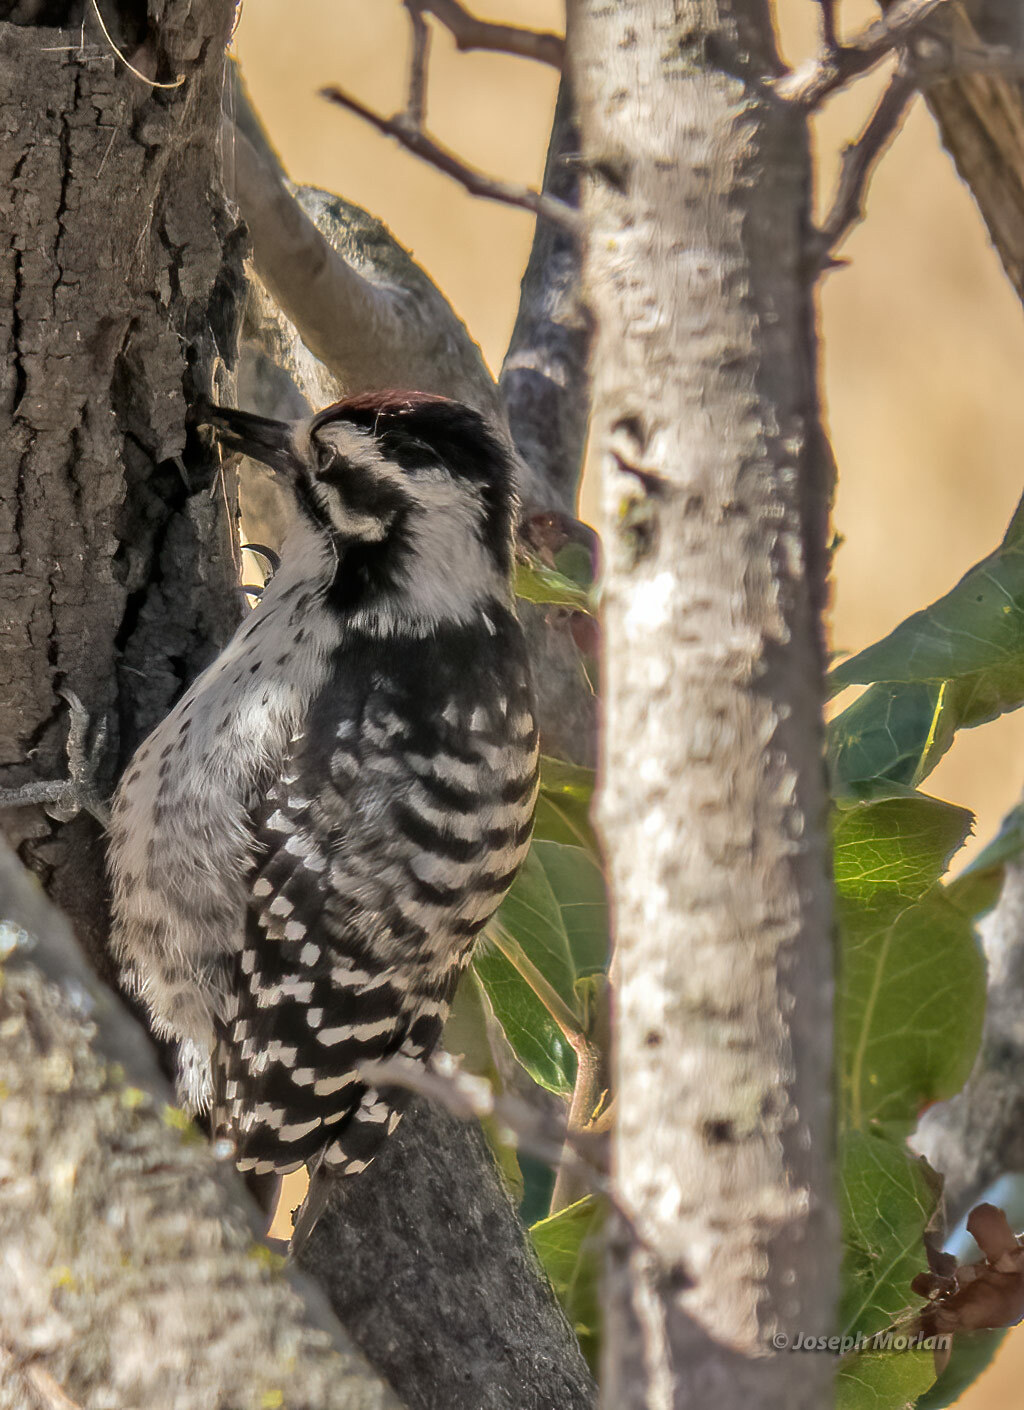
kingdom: Animalia
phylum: Chordata
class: Aves
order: Piciformes
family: Picidae
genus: Dryobates
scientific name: Dryobates nuttallii
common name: Nuttall's woodpecker
